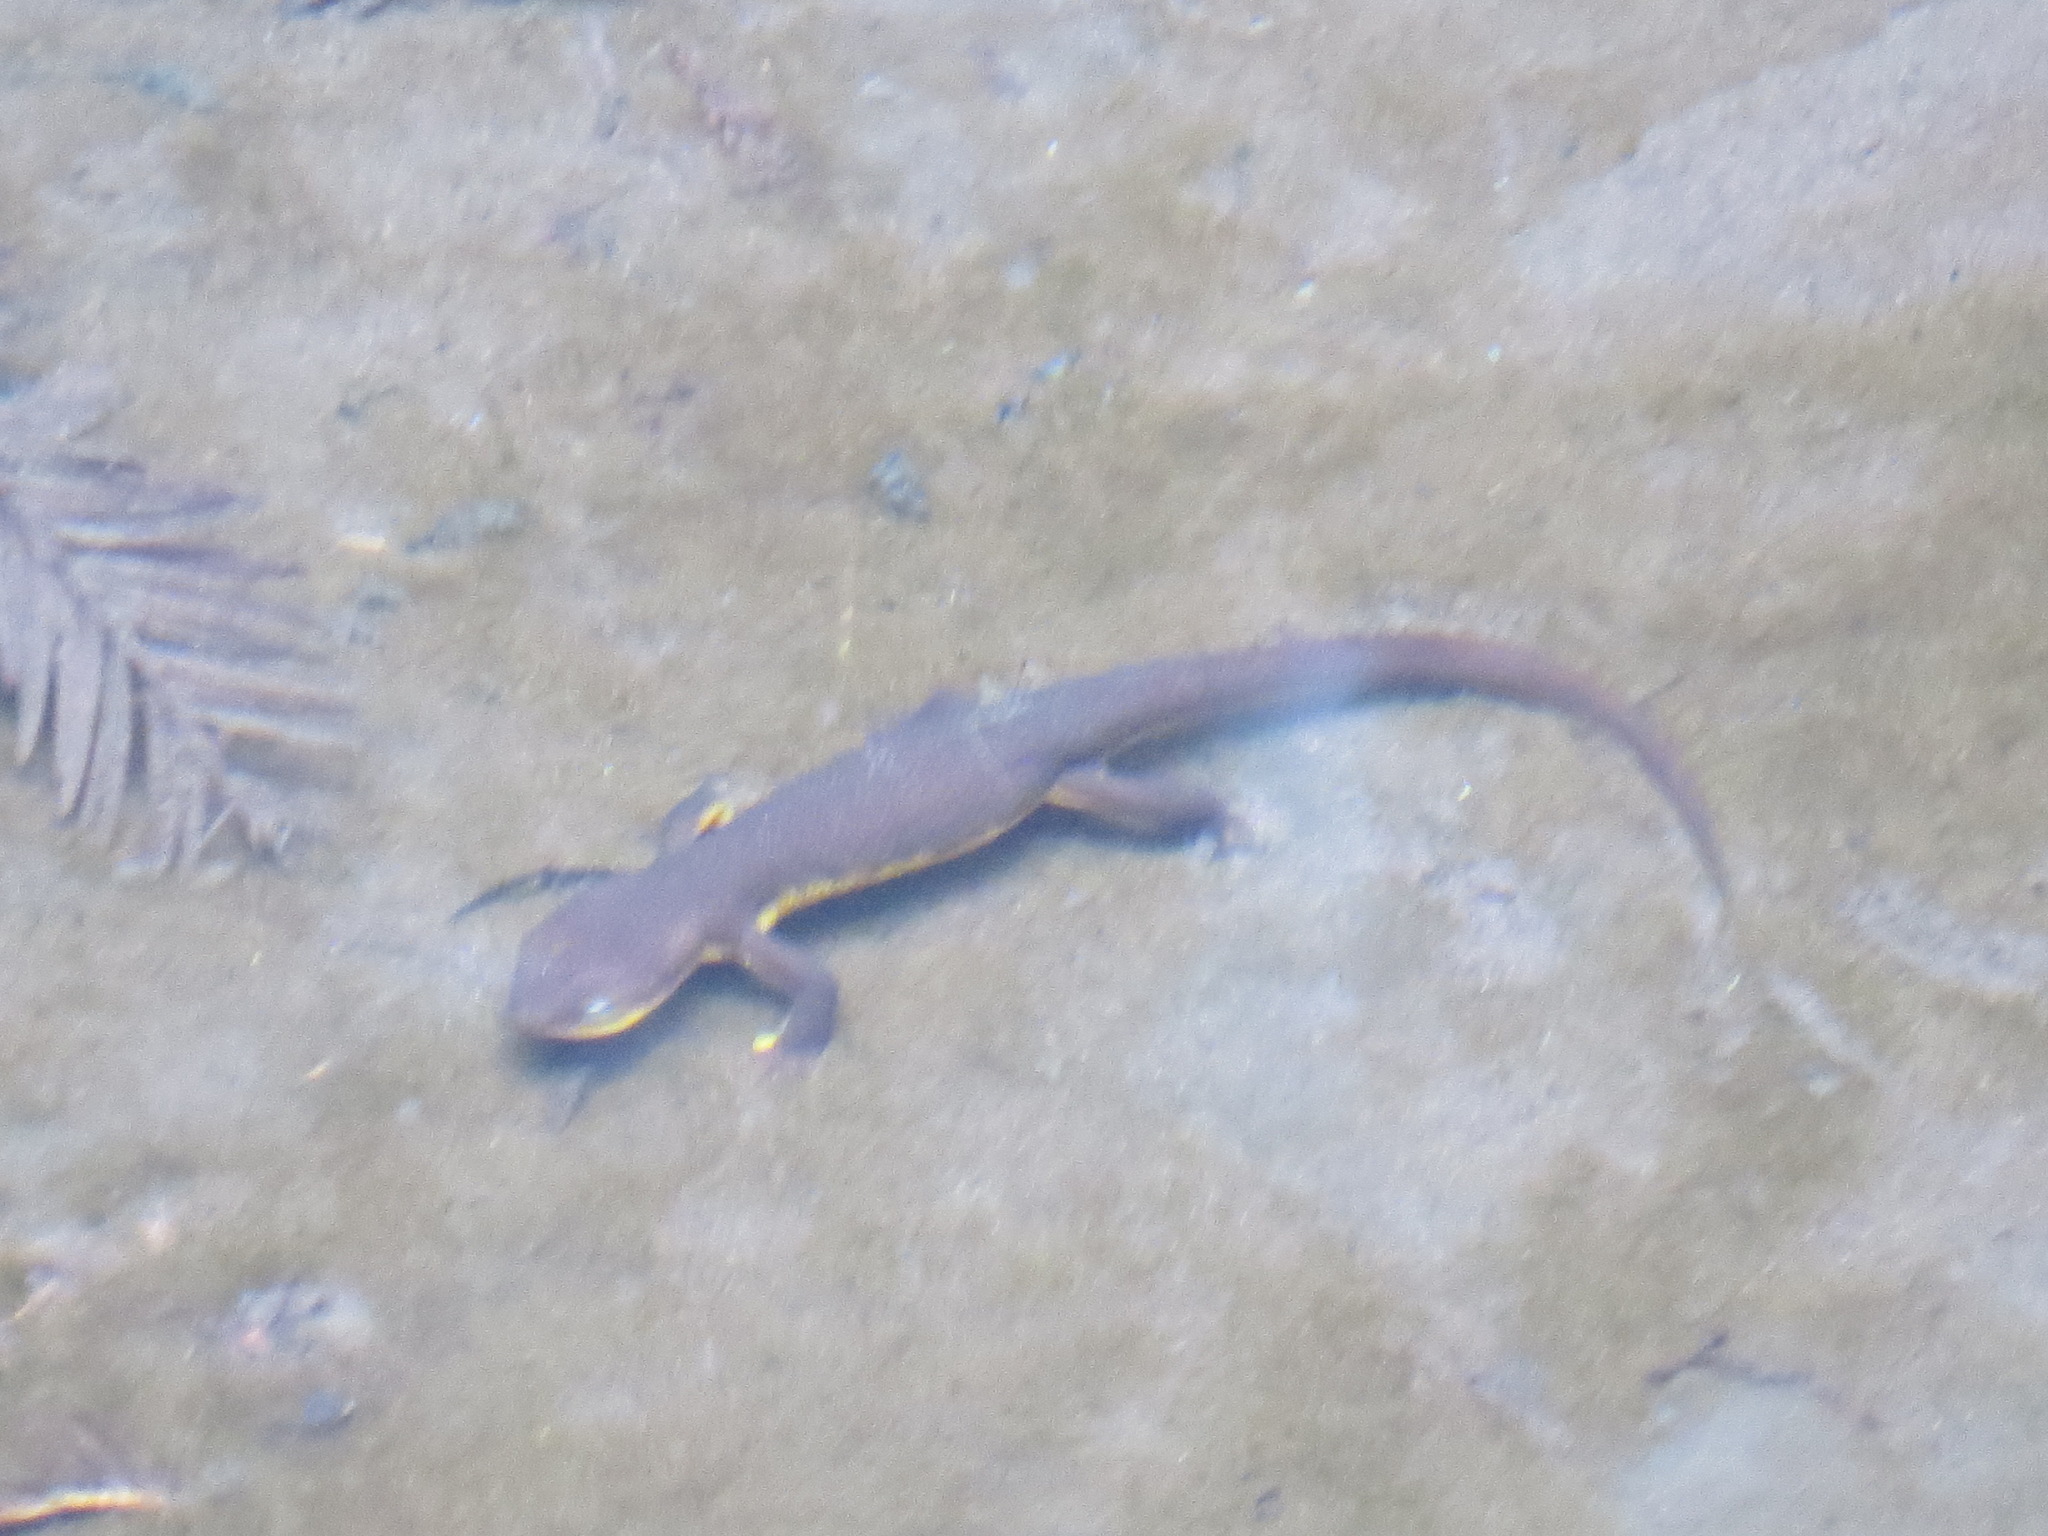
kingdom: Animalia
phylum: Chordata
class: Amphibia
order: Caudata
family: Salamandridae
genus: Taricha
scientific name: Taricha granulosa
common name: Roughskin newt
